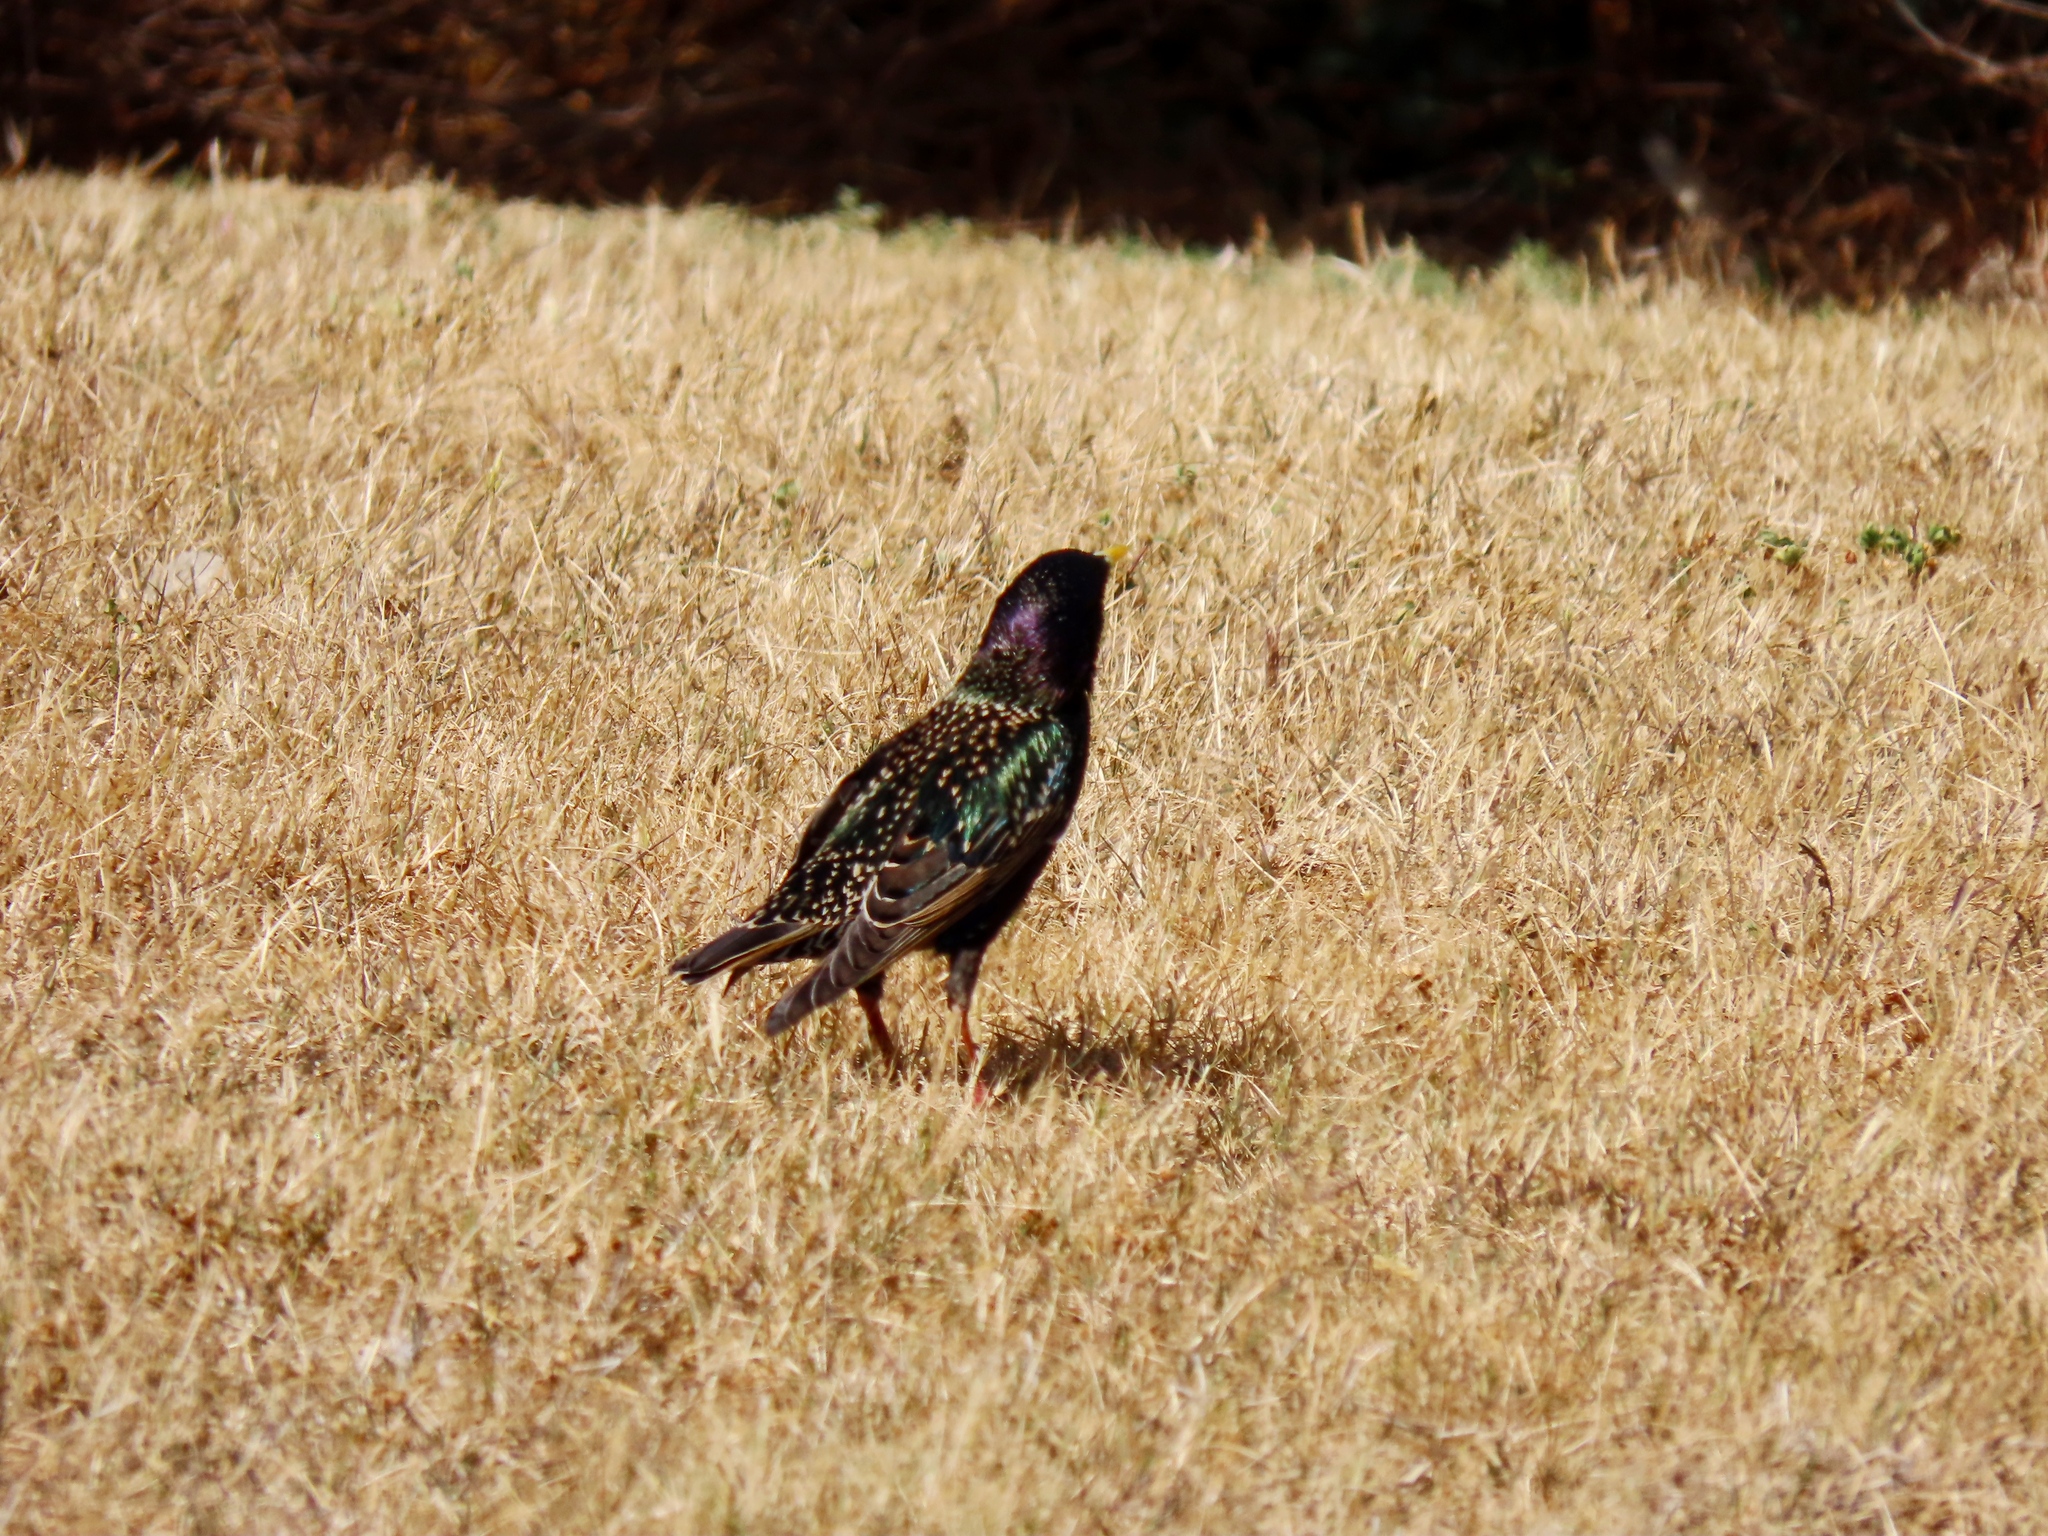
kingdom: Animalia
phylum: Chordata
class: Aves
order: Passeriformes
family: Sturnidae
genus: Sturnus
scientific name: Sturnus vulgaris
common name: Common starling
